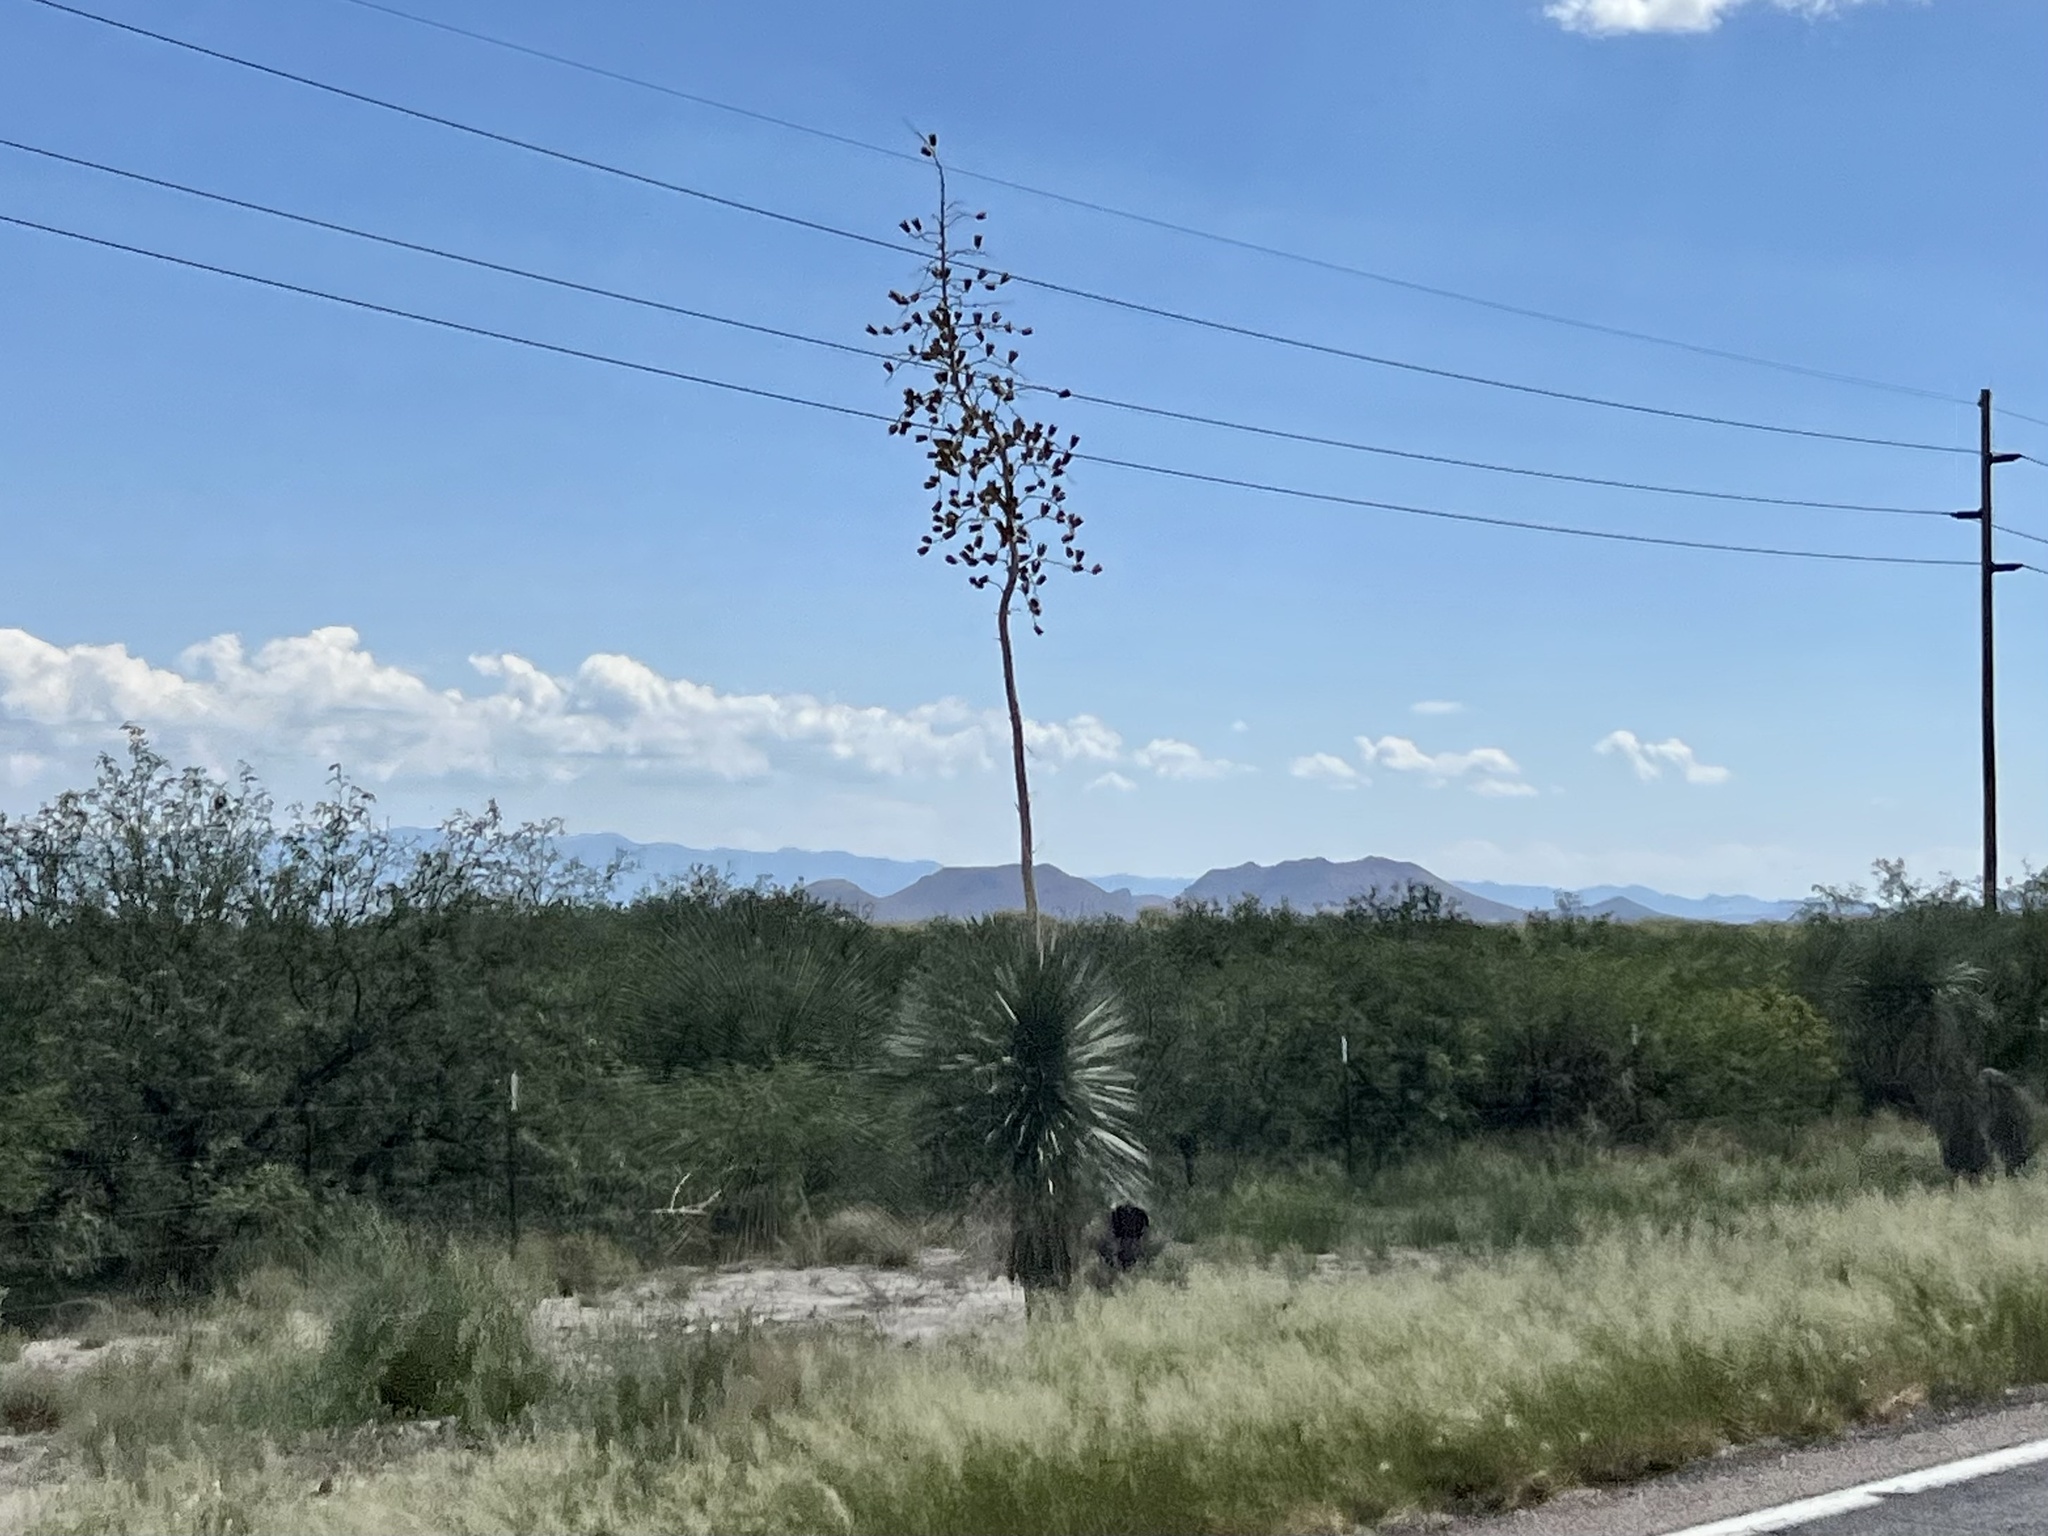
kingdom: Plantae
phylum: Tracheophyta
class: Liliopsida
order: Asparagales
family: Asparagaceae
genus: Yucca
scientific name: Yucca elata
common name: Palmella
